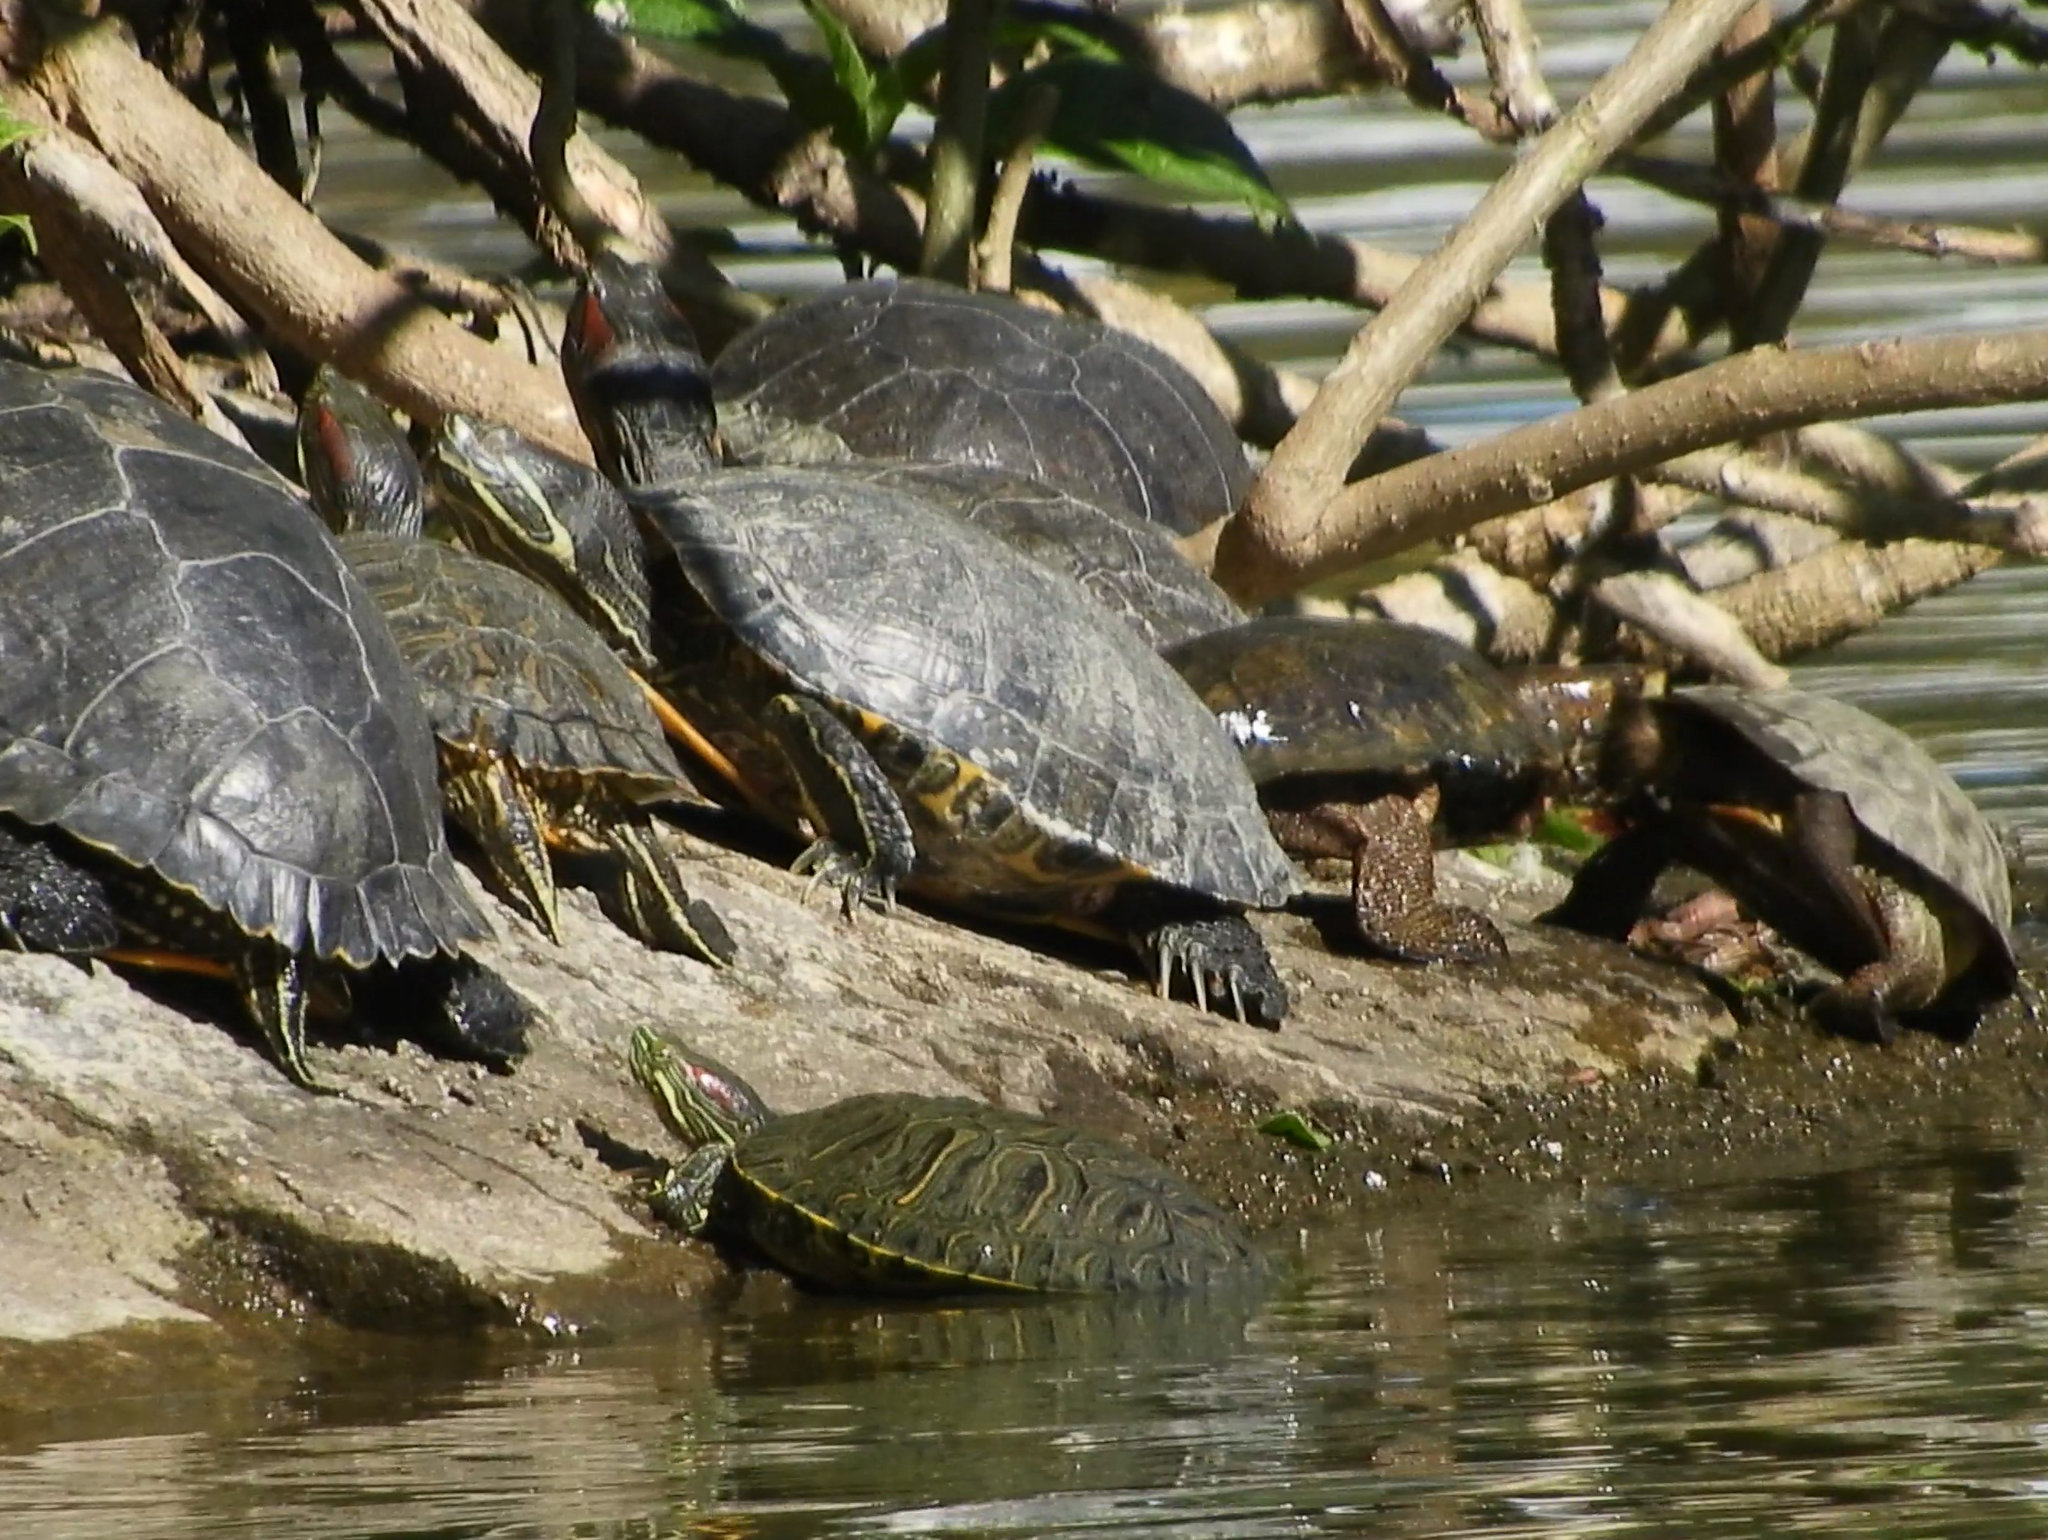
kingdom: Animalia
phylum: Chordata
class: Testudines
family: Emydidae
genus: Trachemys
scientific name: Trachemys scripta
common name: Slider
